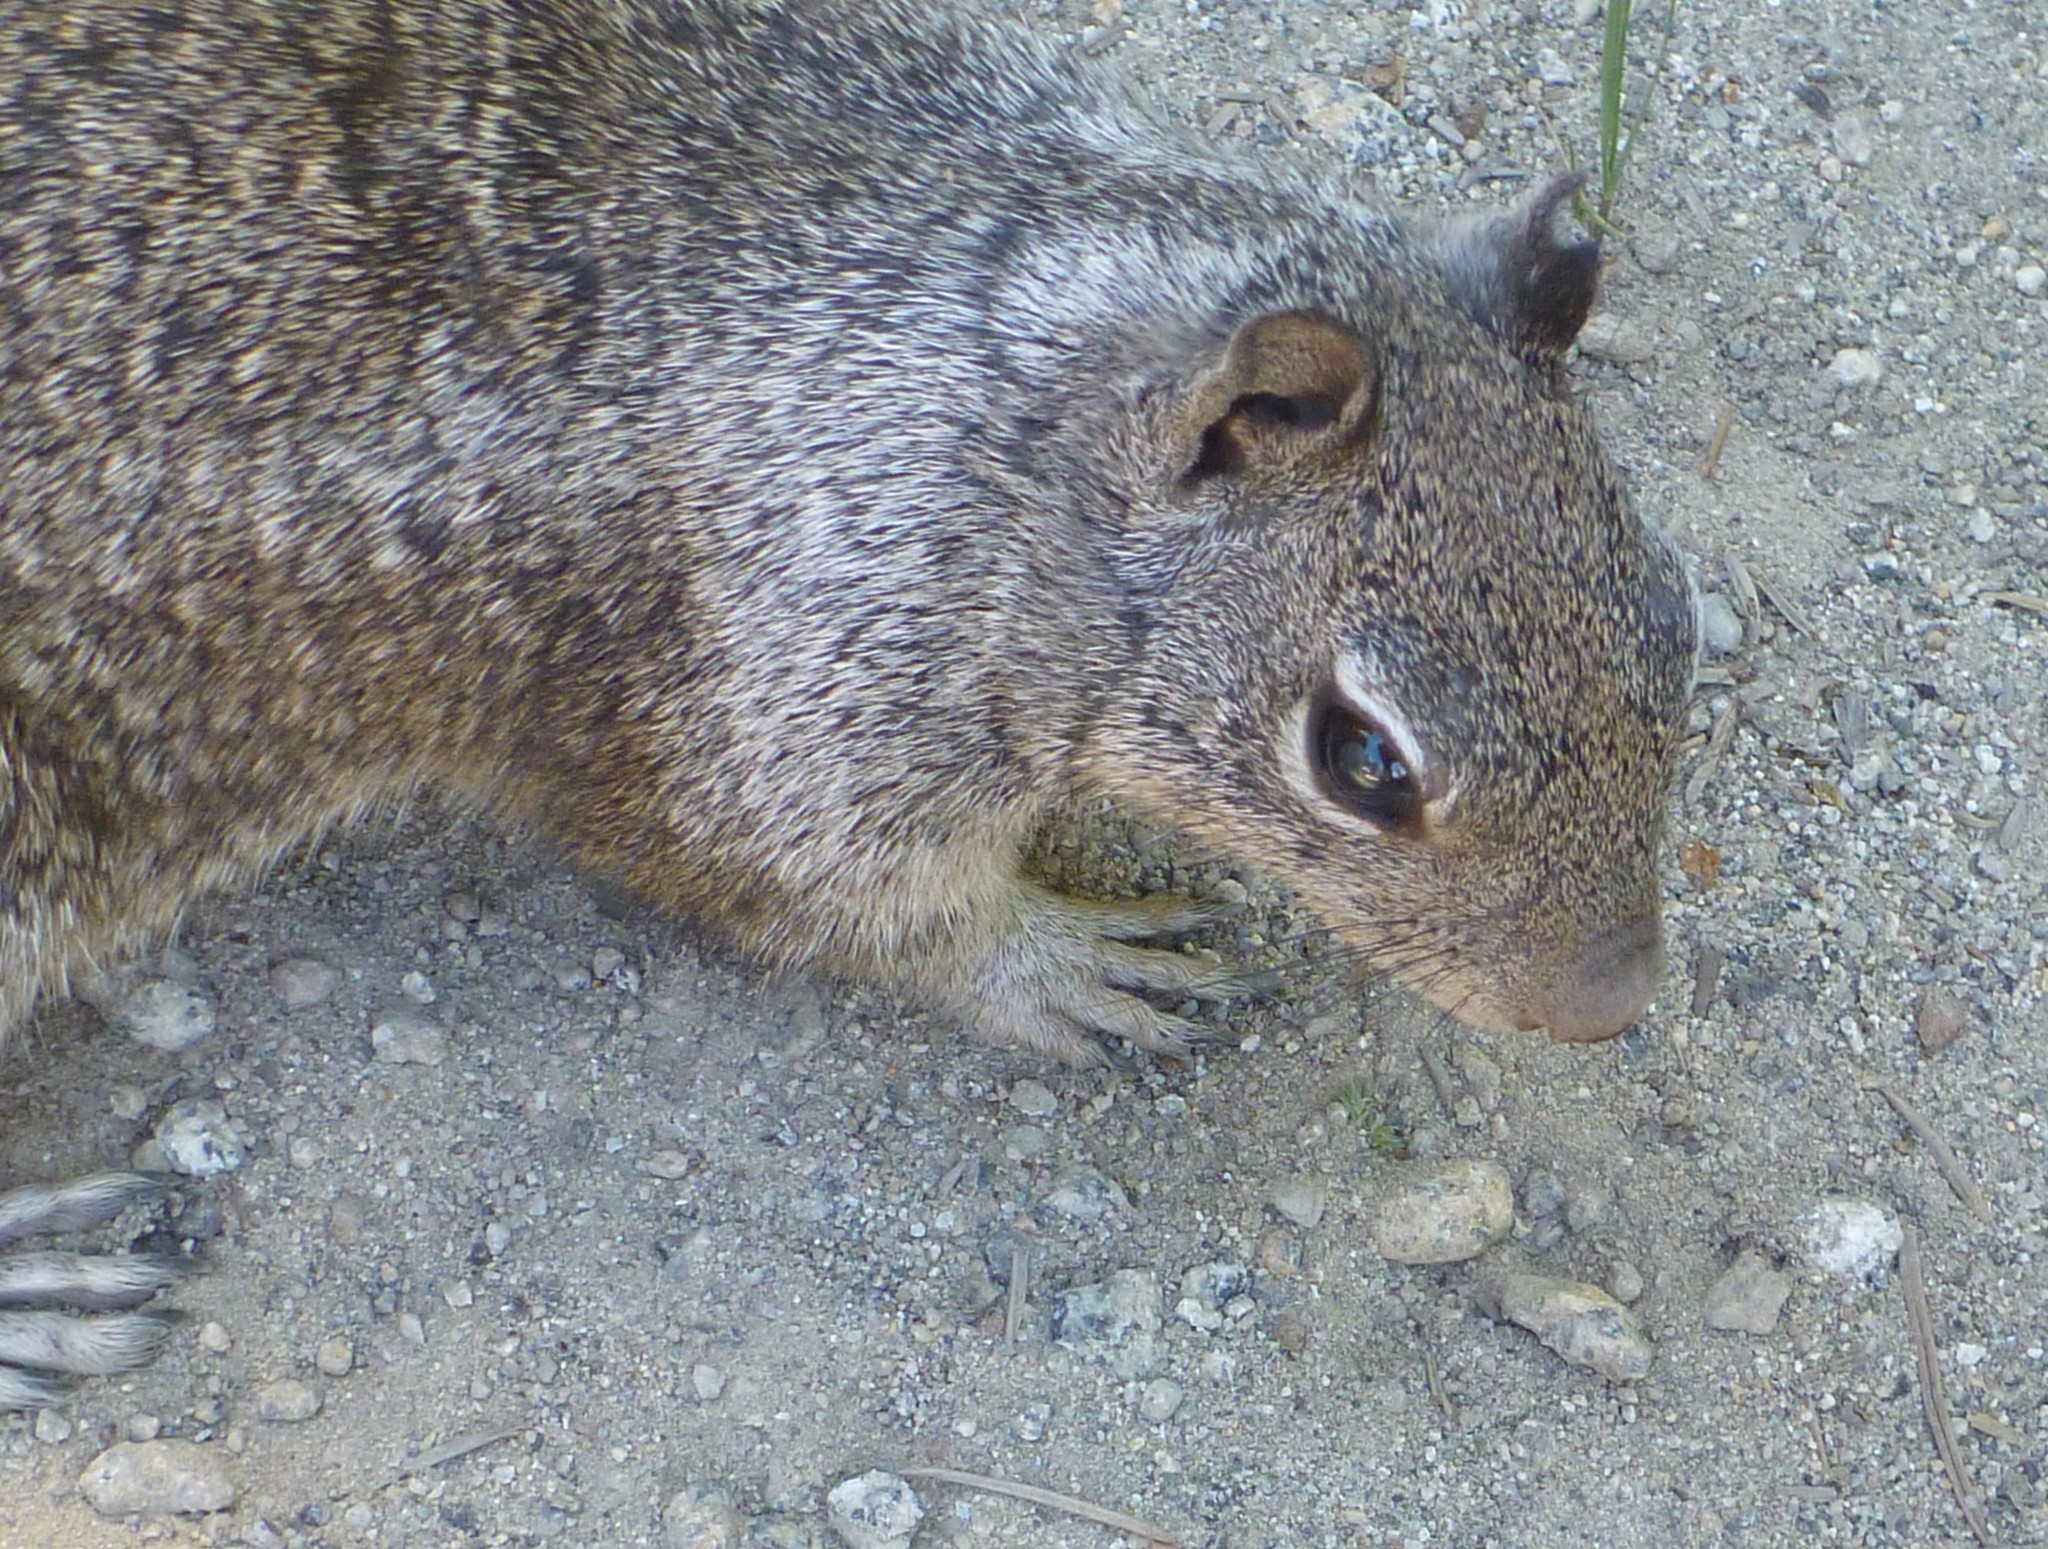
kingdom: Animalia
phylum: Chordata
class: Mammalia
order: Rodentia
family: Sciuridae
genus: Otospermophilus
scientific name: Otospermophilus beecheyi
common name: California ground squirrel
